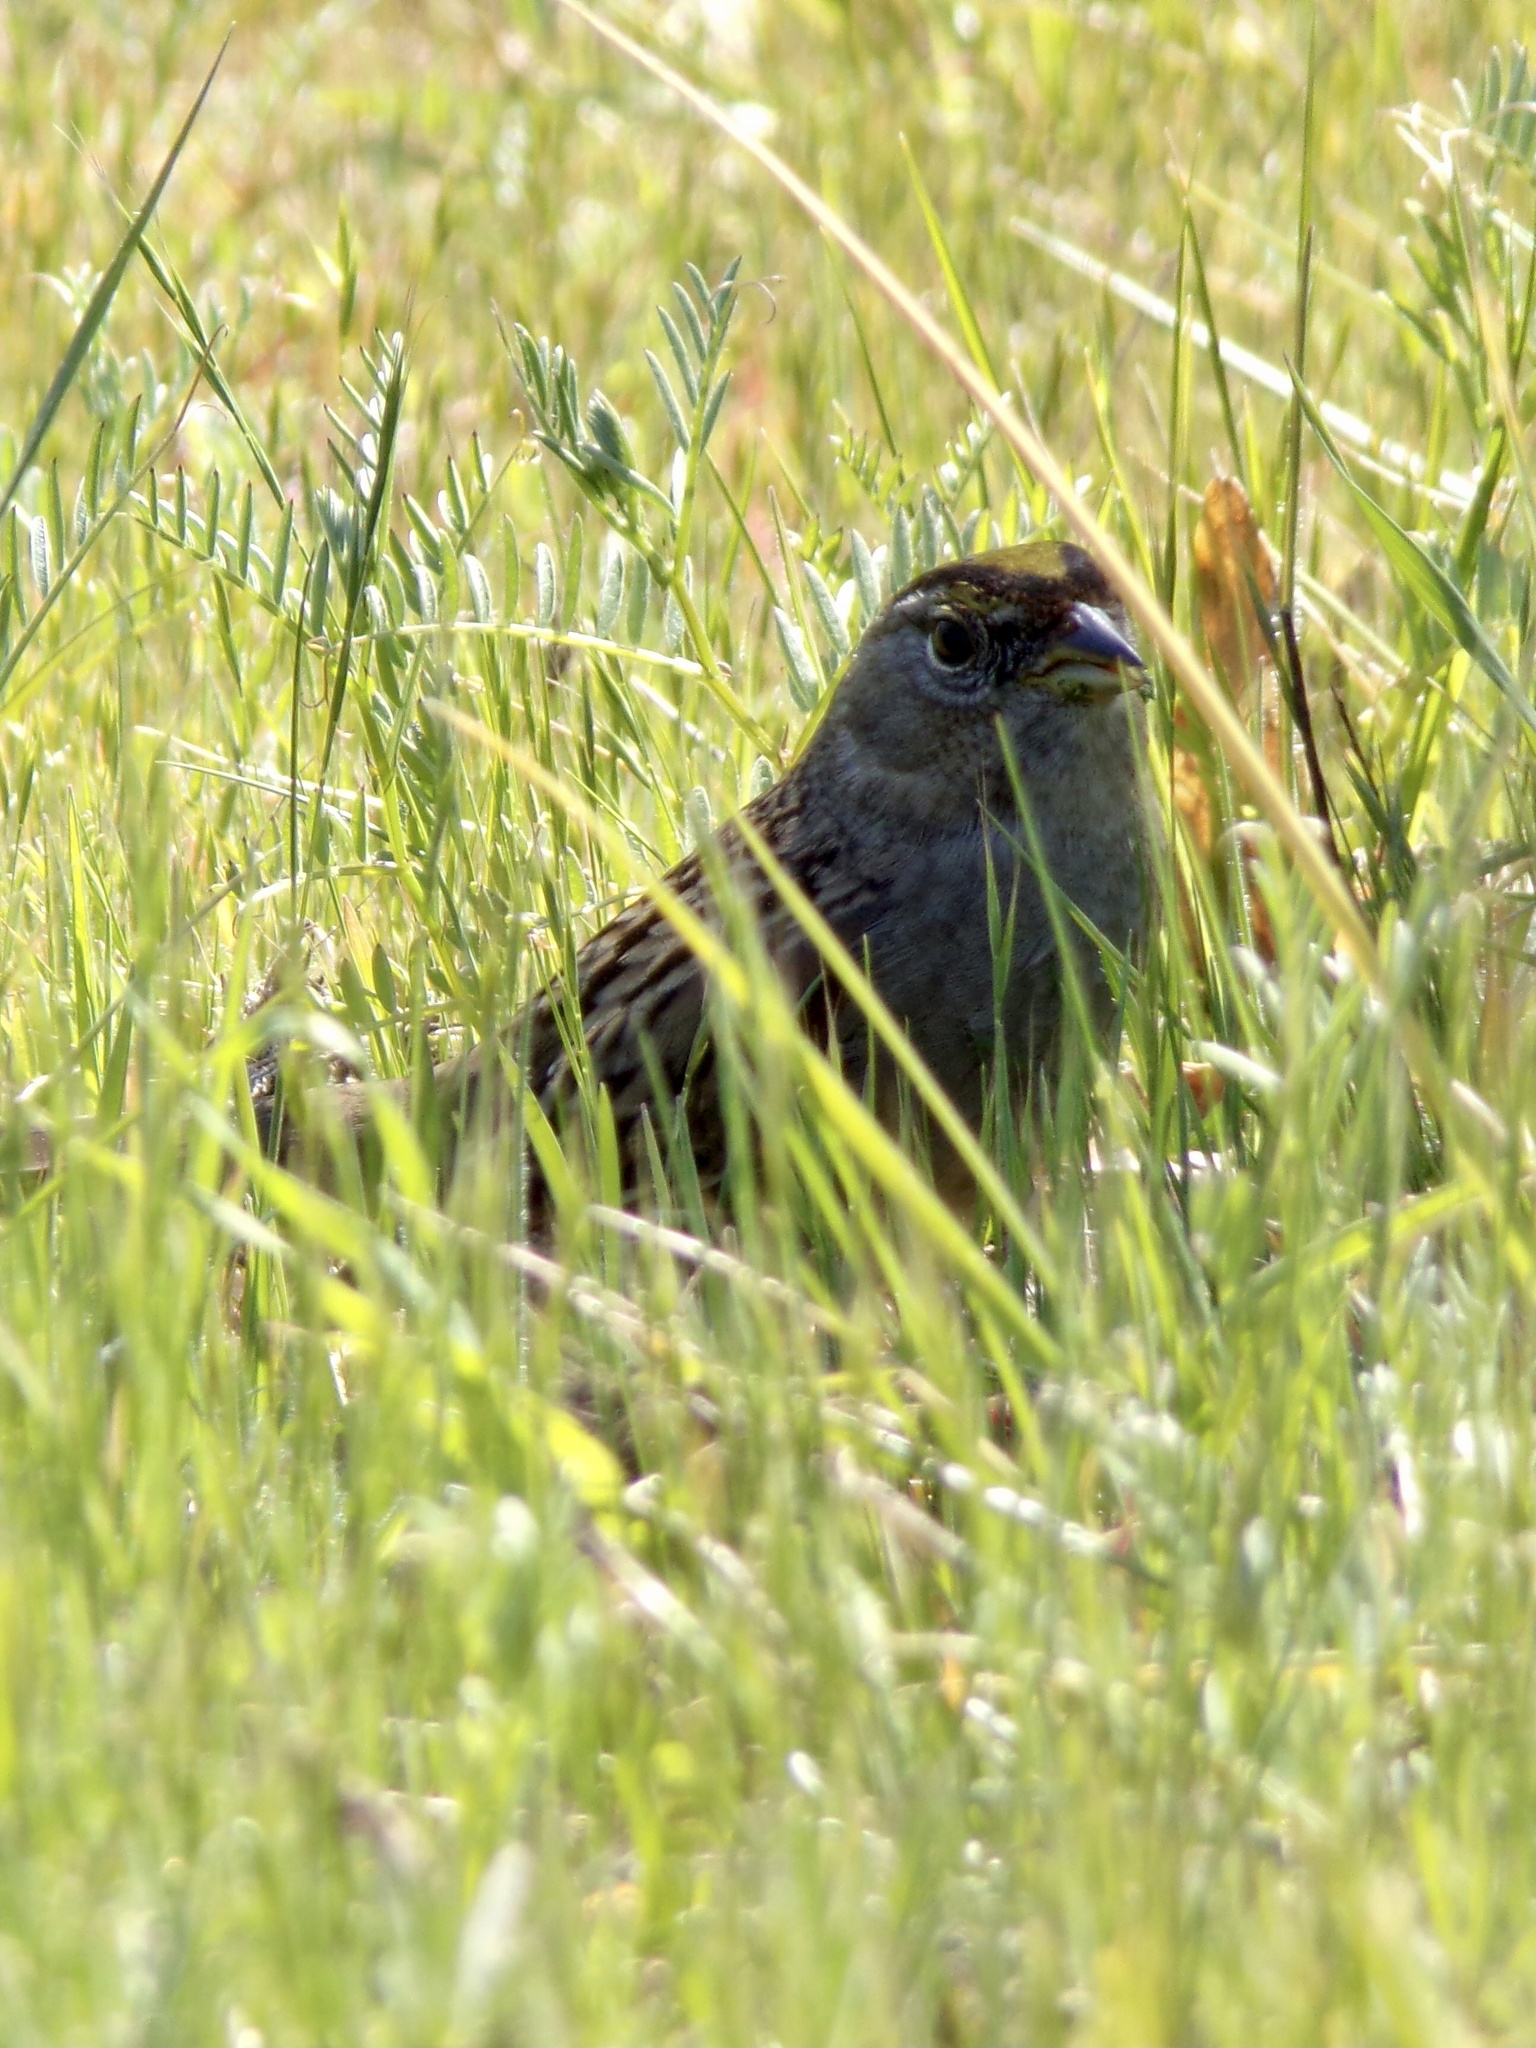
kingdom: Animalia
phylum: Chordata
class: Aves
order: Passeriformes
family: Passerellidae
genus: Zonotrichia
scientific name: Zonotrichia atricapilla
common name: Golden-crowned sparrow
